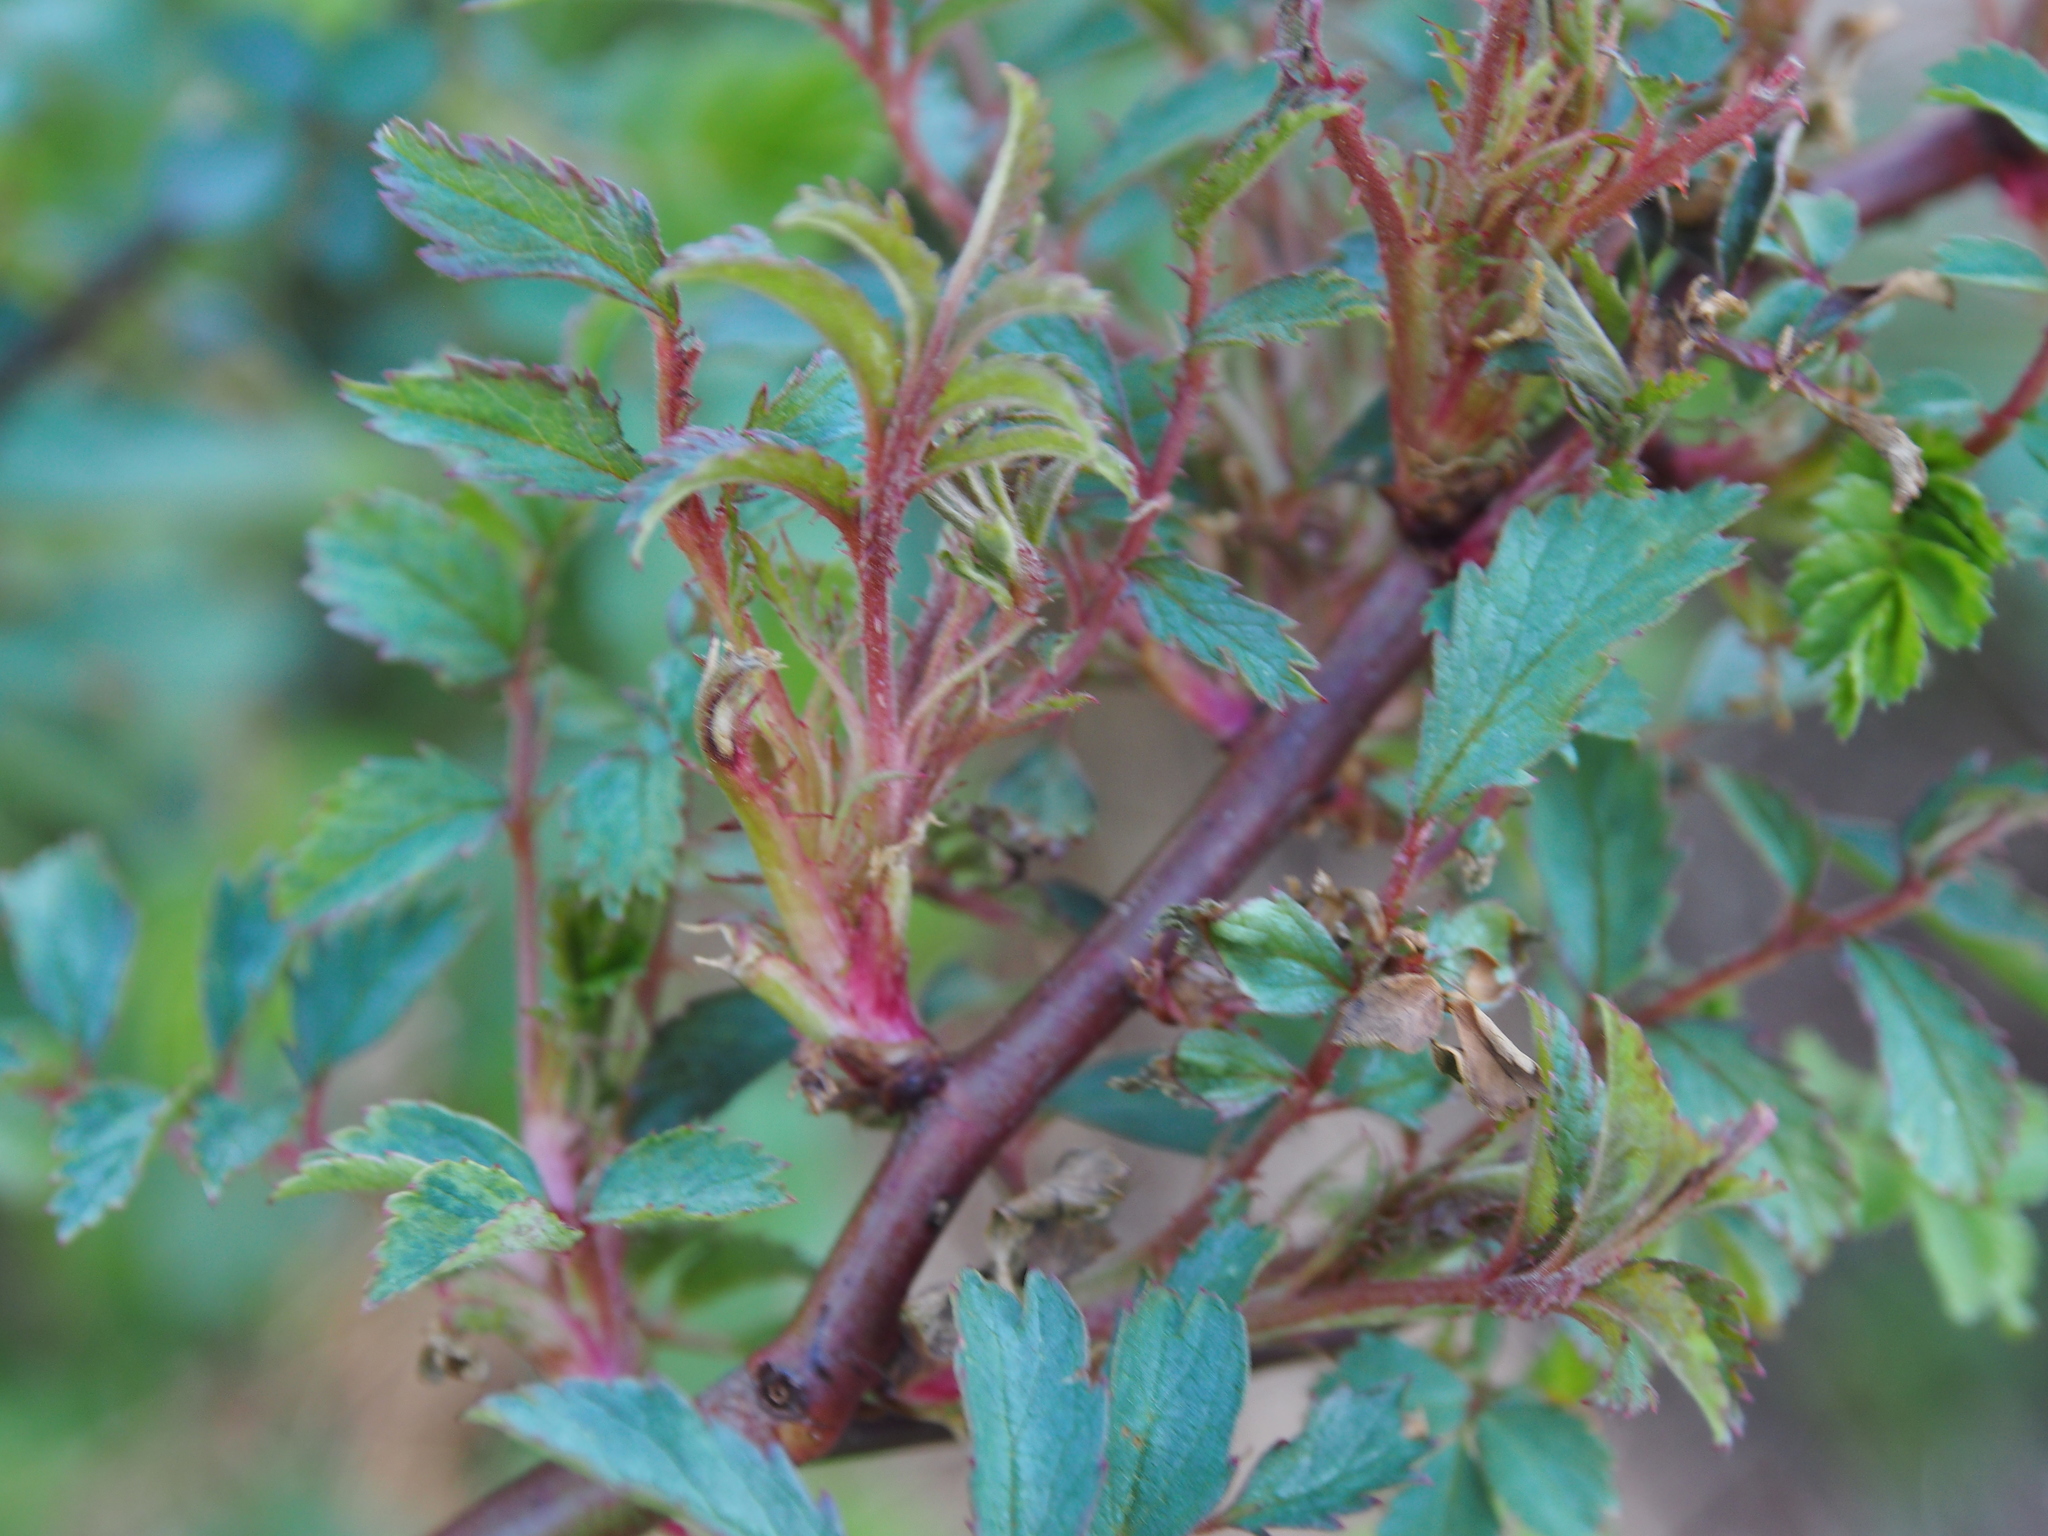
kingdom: Plantae
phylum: Tracheophyta
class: Magnoliopsida
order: Rosales
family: Rosaceae
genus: Rosa
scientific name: Rosa multiflora
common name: Multiflora rose
